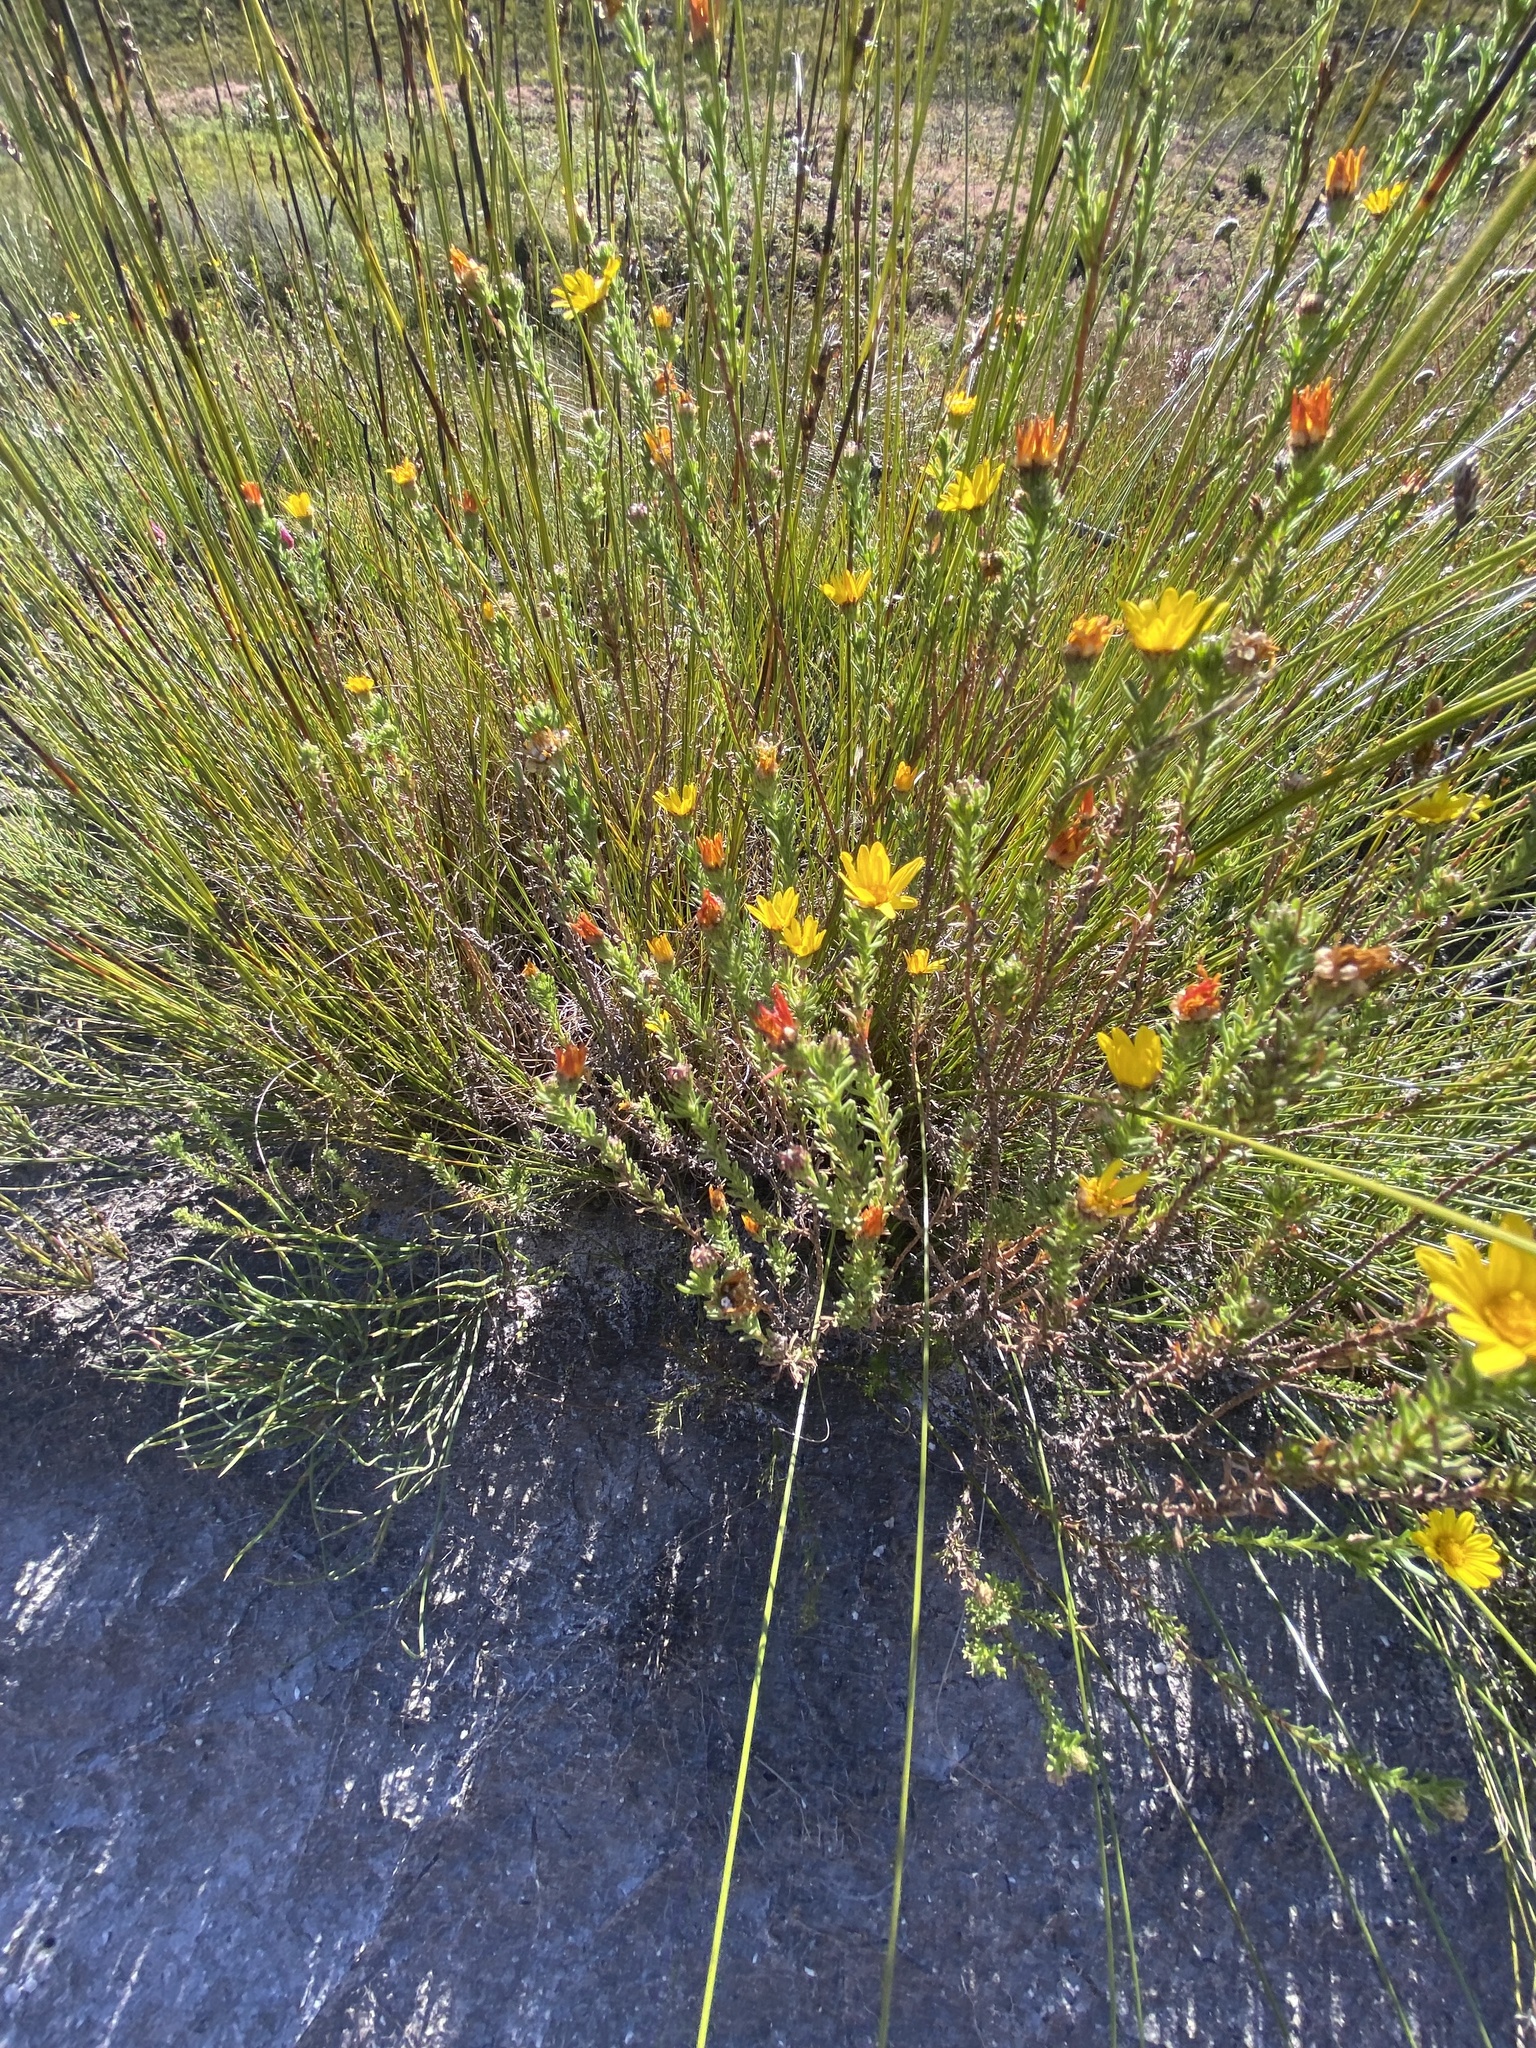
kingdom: Plantae
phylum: Tracheophyta
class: Magnoliopsida
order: Asterales
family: Asteraceae
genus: Ursinia
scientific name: Ursinia trifida
